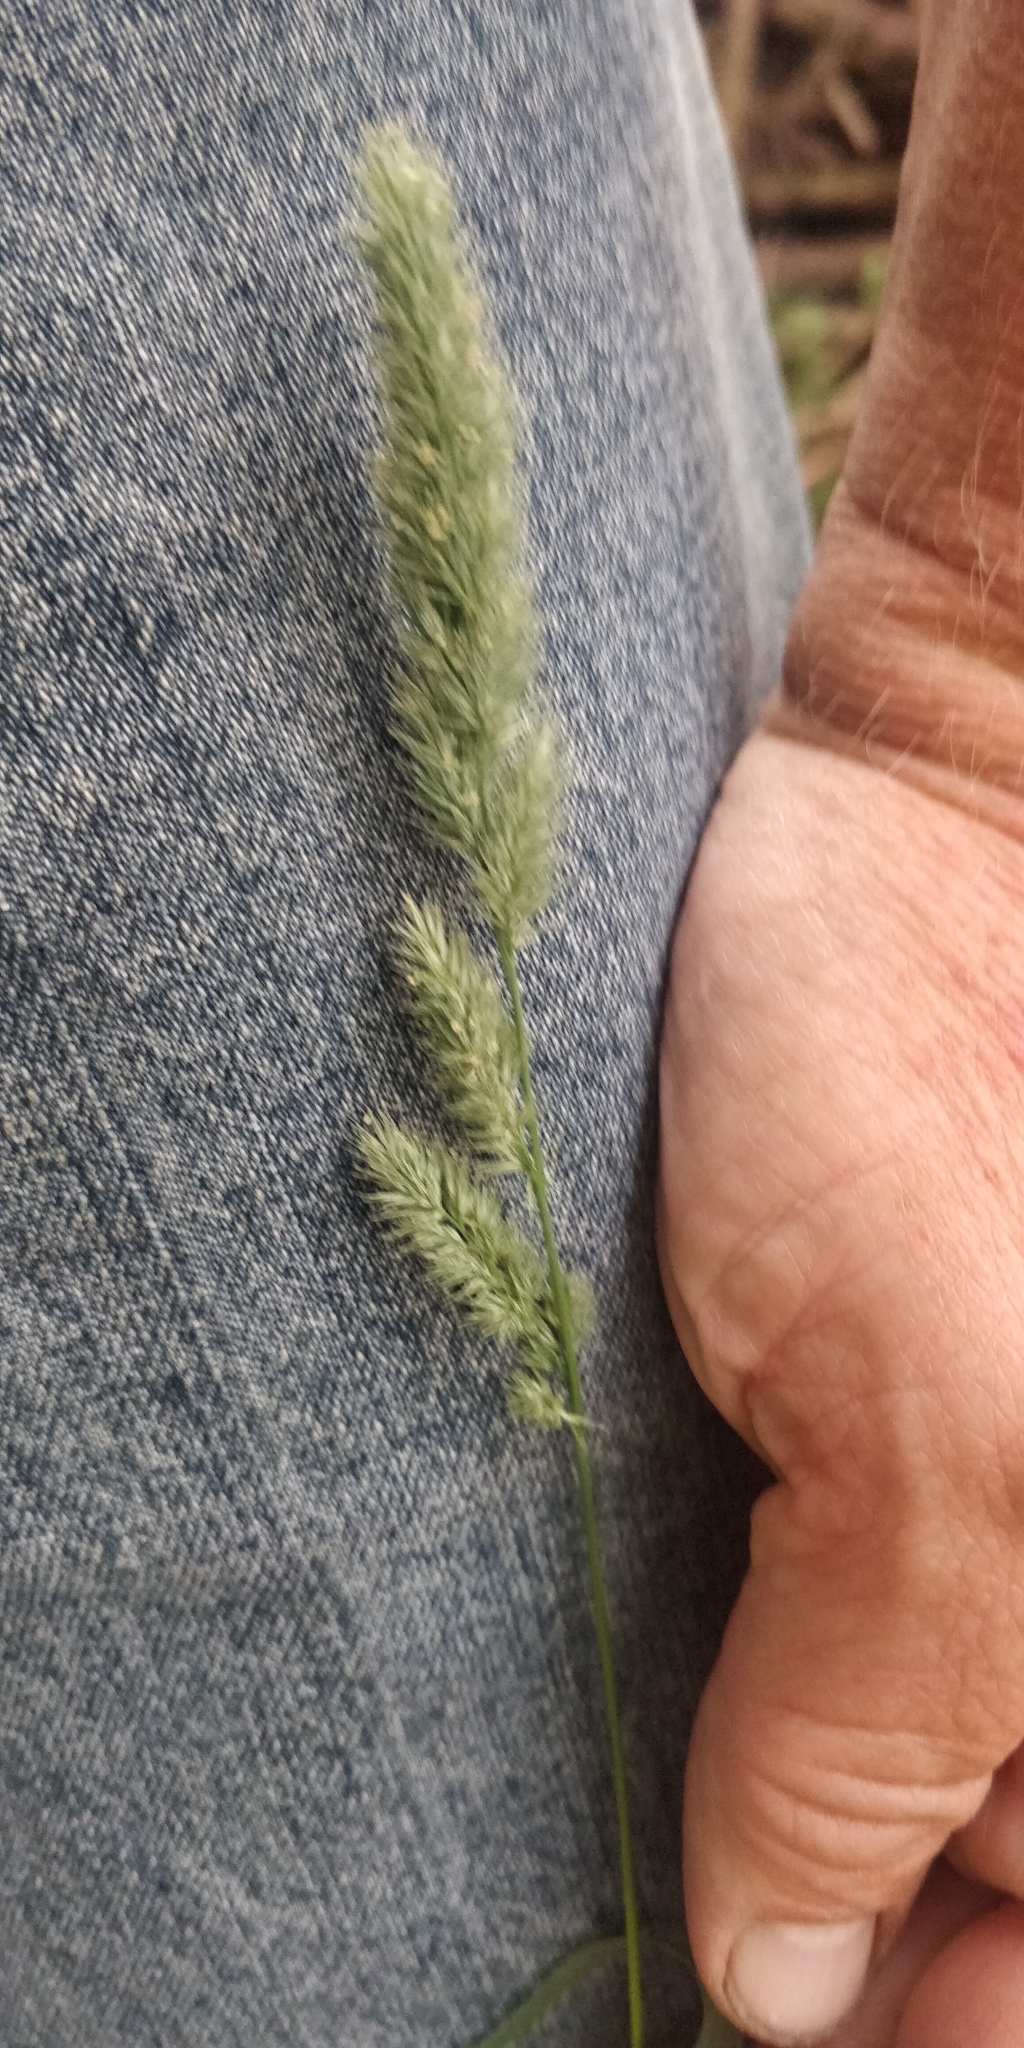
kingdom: Plantae
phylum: Tracheophyta
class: Liliopsida
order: Poales
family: Poaceae
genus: Muhlenbergia
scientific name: Muhlenbergia racemosa
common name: Green muhly
